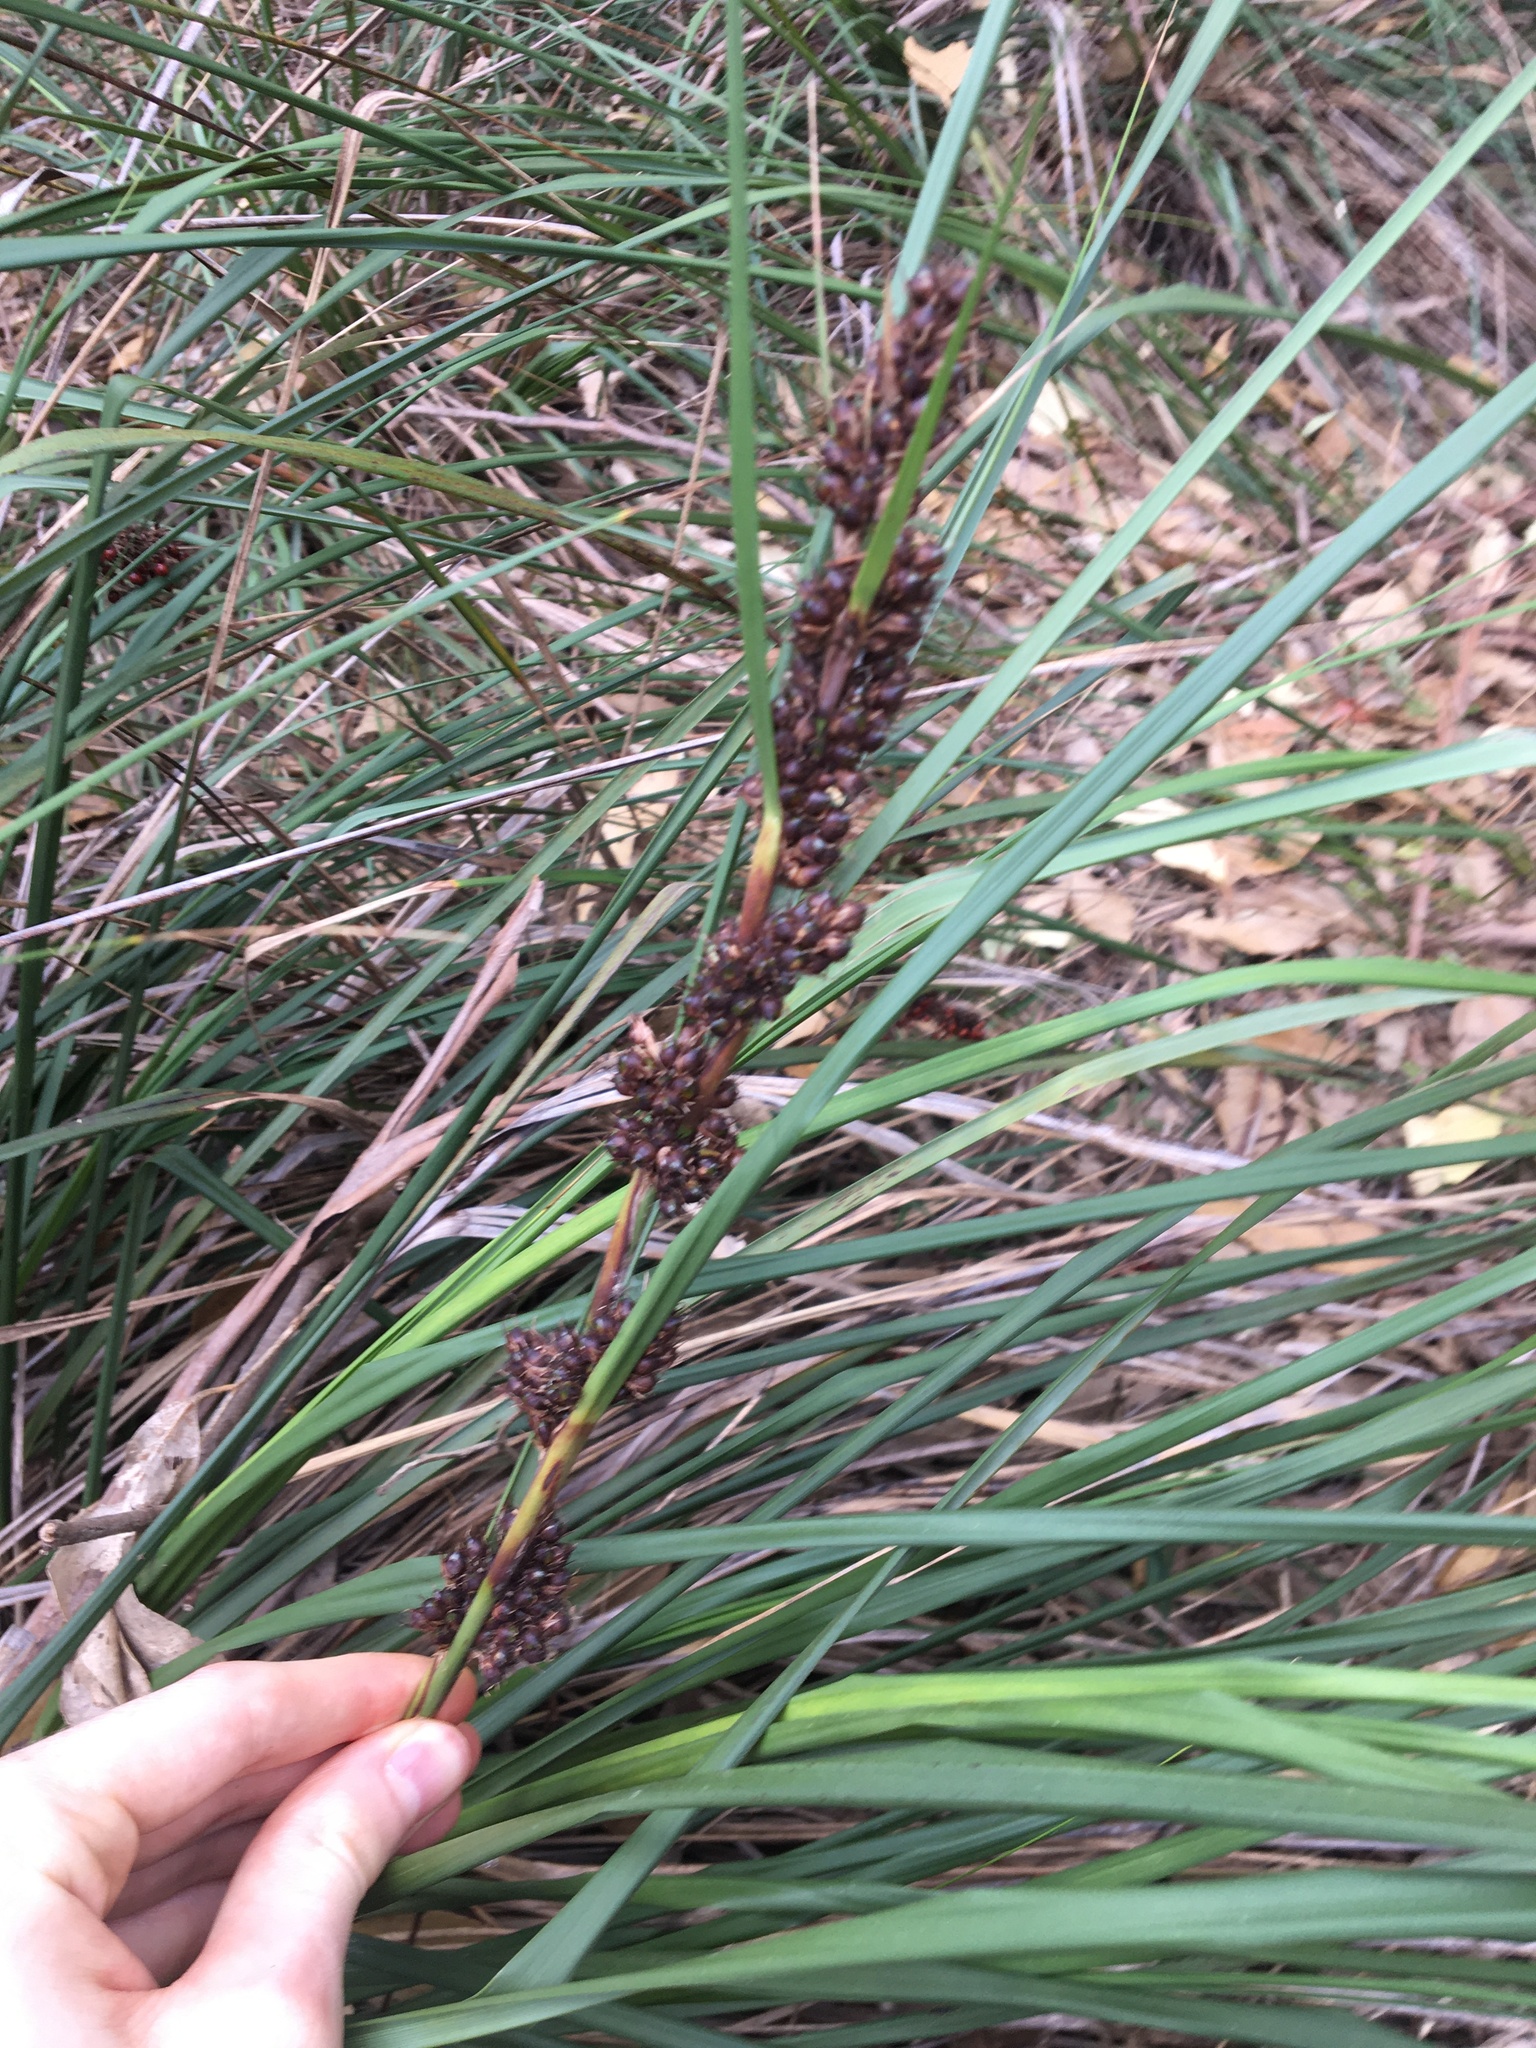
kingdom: Plantae
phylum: Tracheophyta
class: Liliopsida
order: Poales
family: Cyperaceae
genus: Gahnia
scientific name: Gahnia aspera
